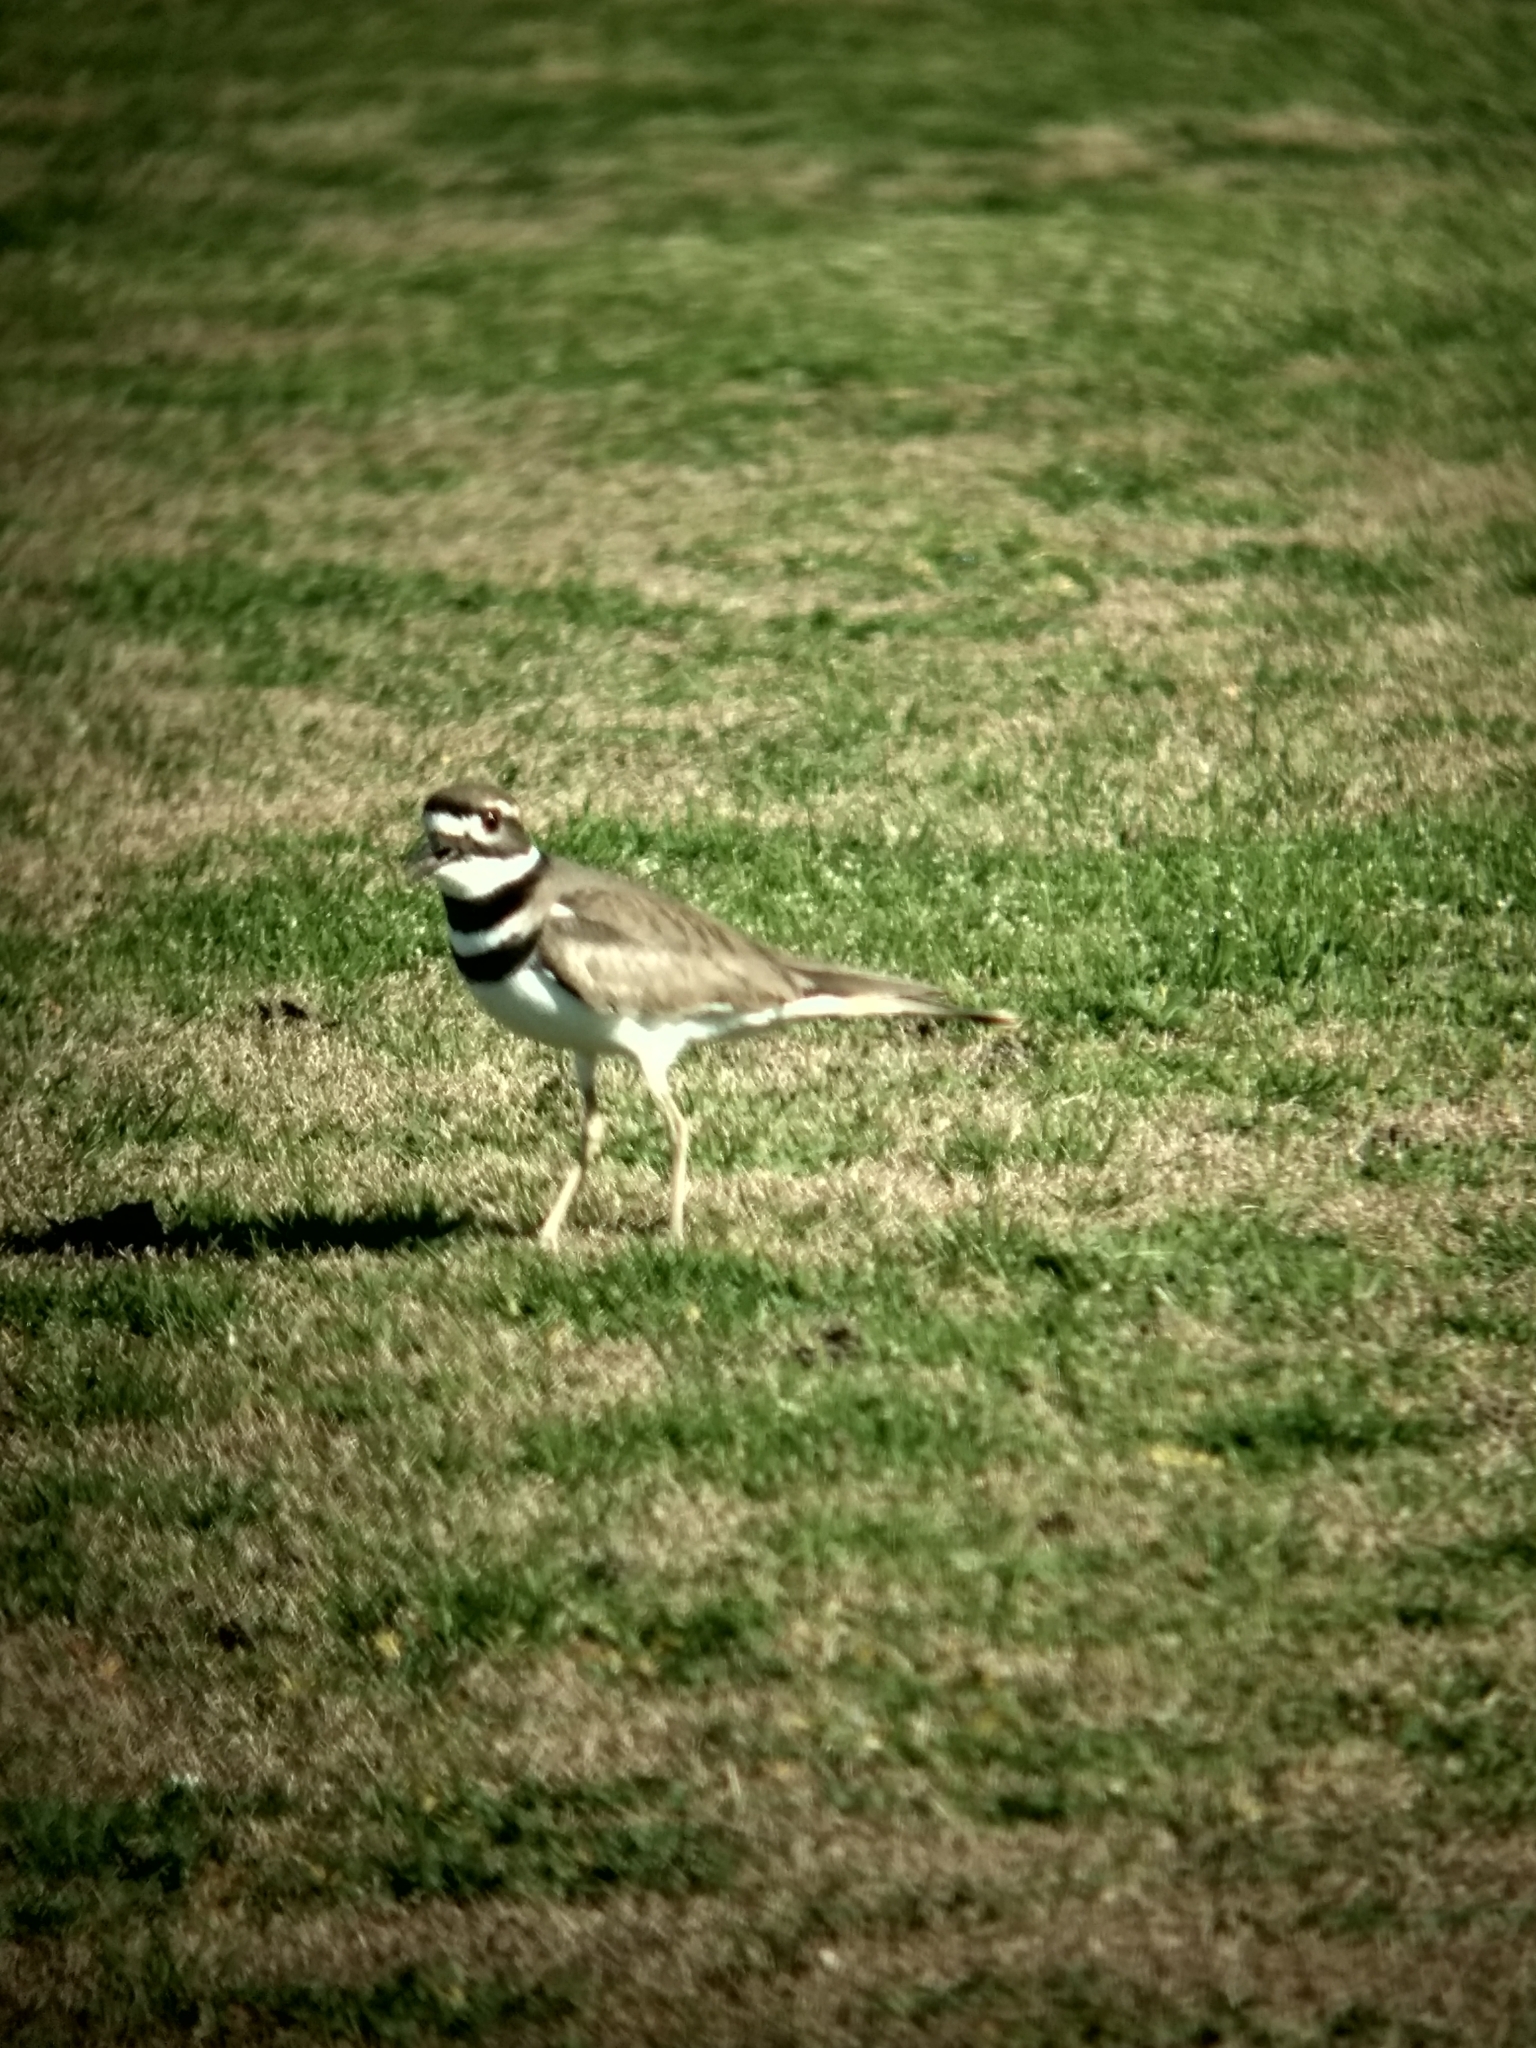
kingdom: Animalia
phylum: Chordata
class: Aves
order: Charadriiformes
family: Charadriidae
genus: Charadrius
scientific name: Charadrius vociferus
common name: Killdeer
